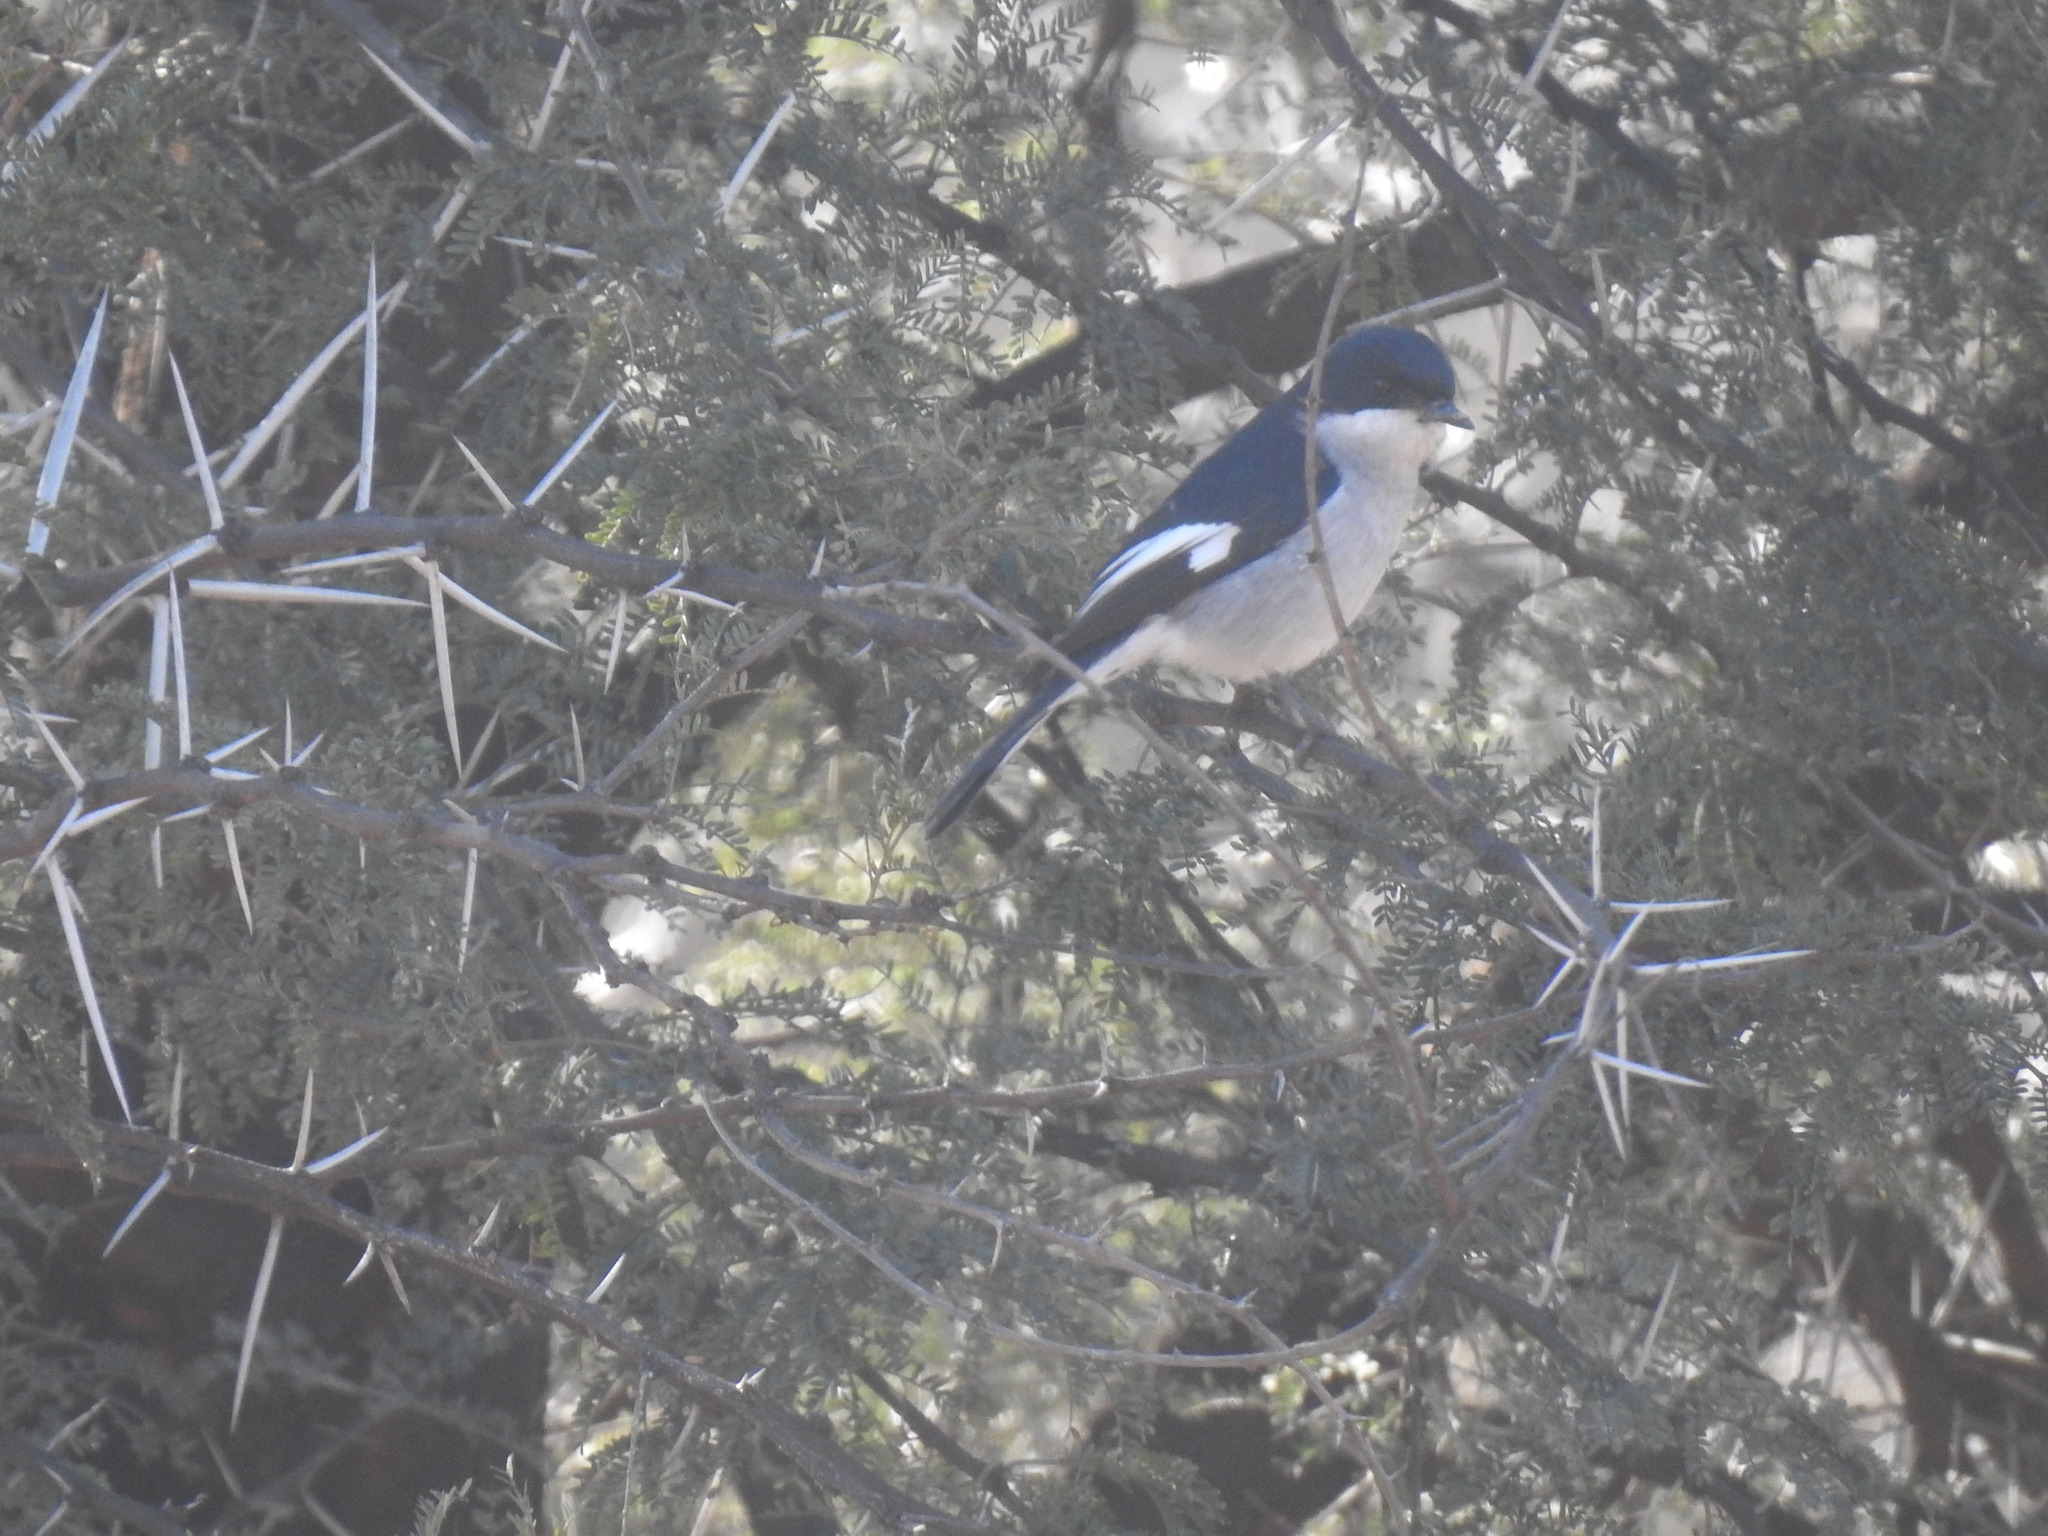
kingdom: Animalia
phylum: Chordata
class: Aves
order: Passeriformes
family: Muscicapidae
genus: Sigelus
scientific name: Sigelus silens
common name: Fiscal flycatcher
